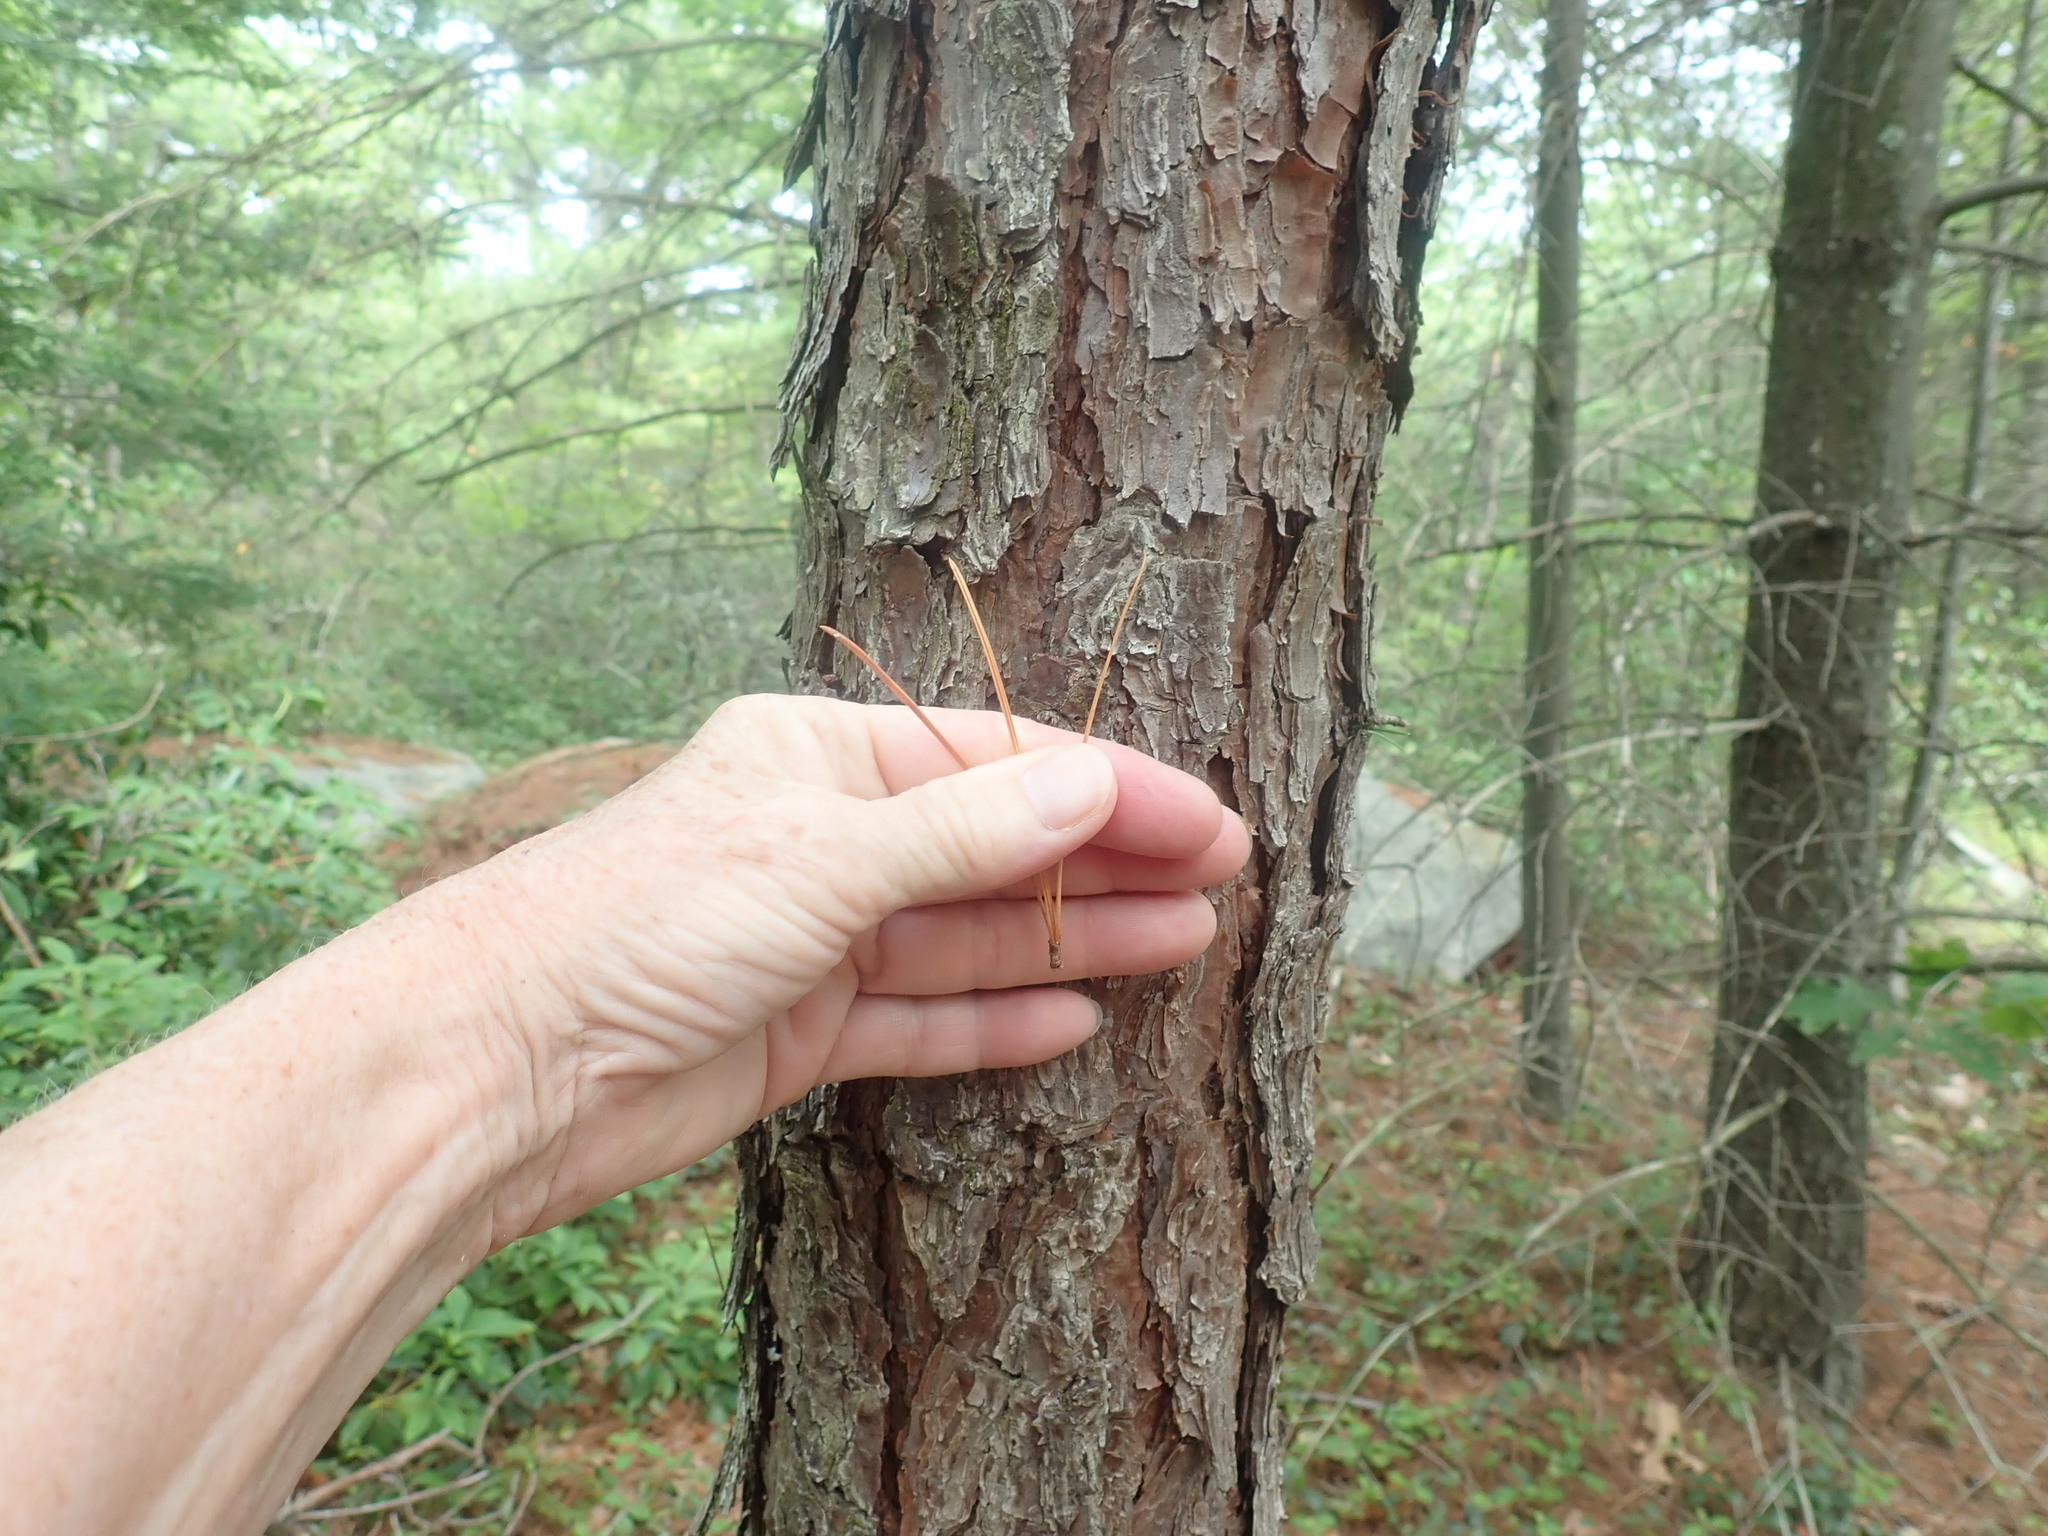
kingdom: Plantae
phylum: Tracheophyta
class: Pinopsida
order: Pinales
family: Pinaceae
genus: Pinus
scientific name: Pinus rigida
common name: Pitch pine
